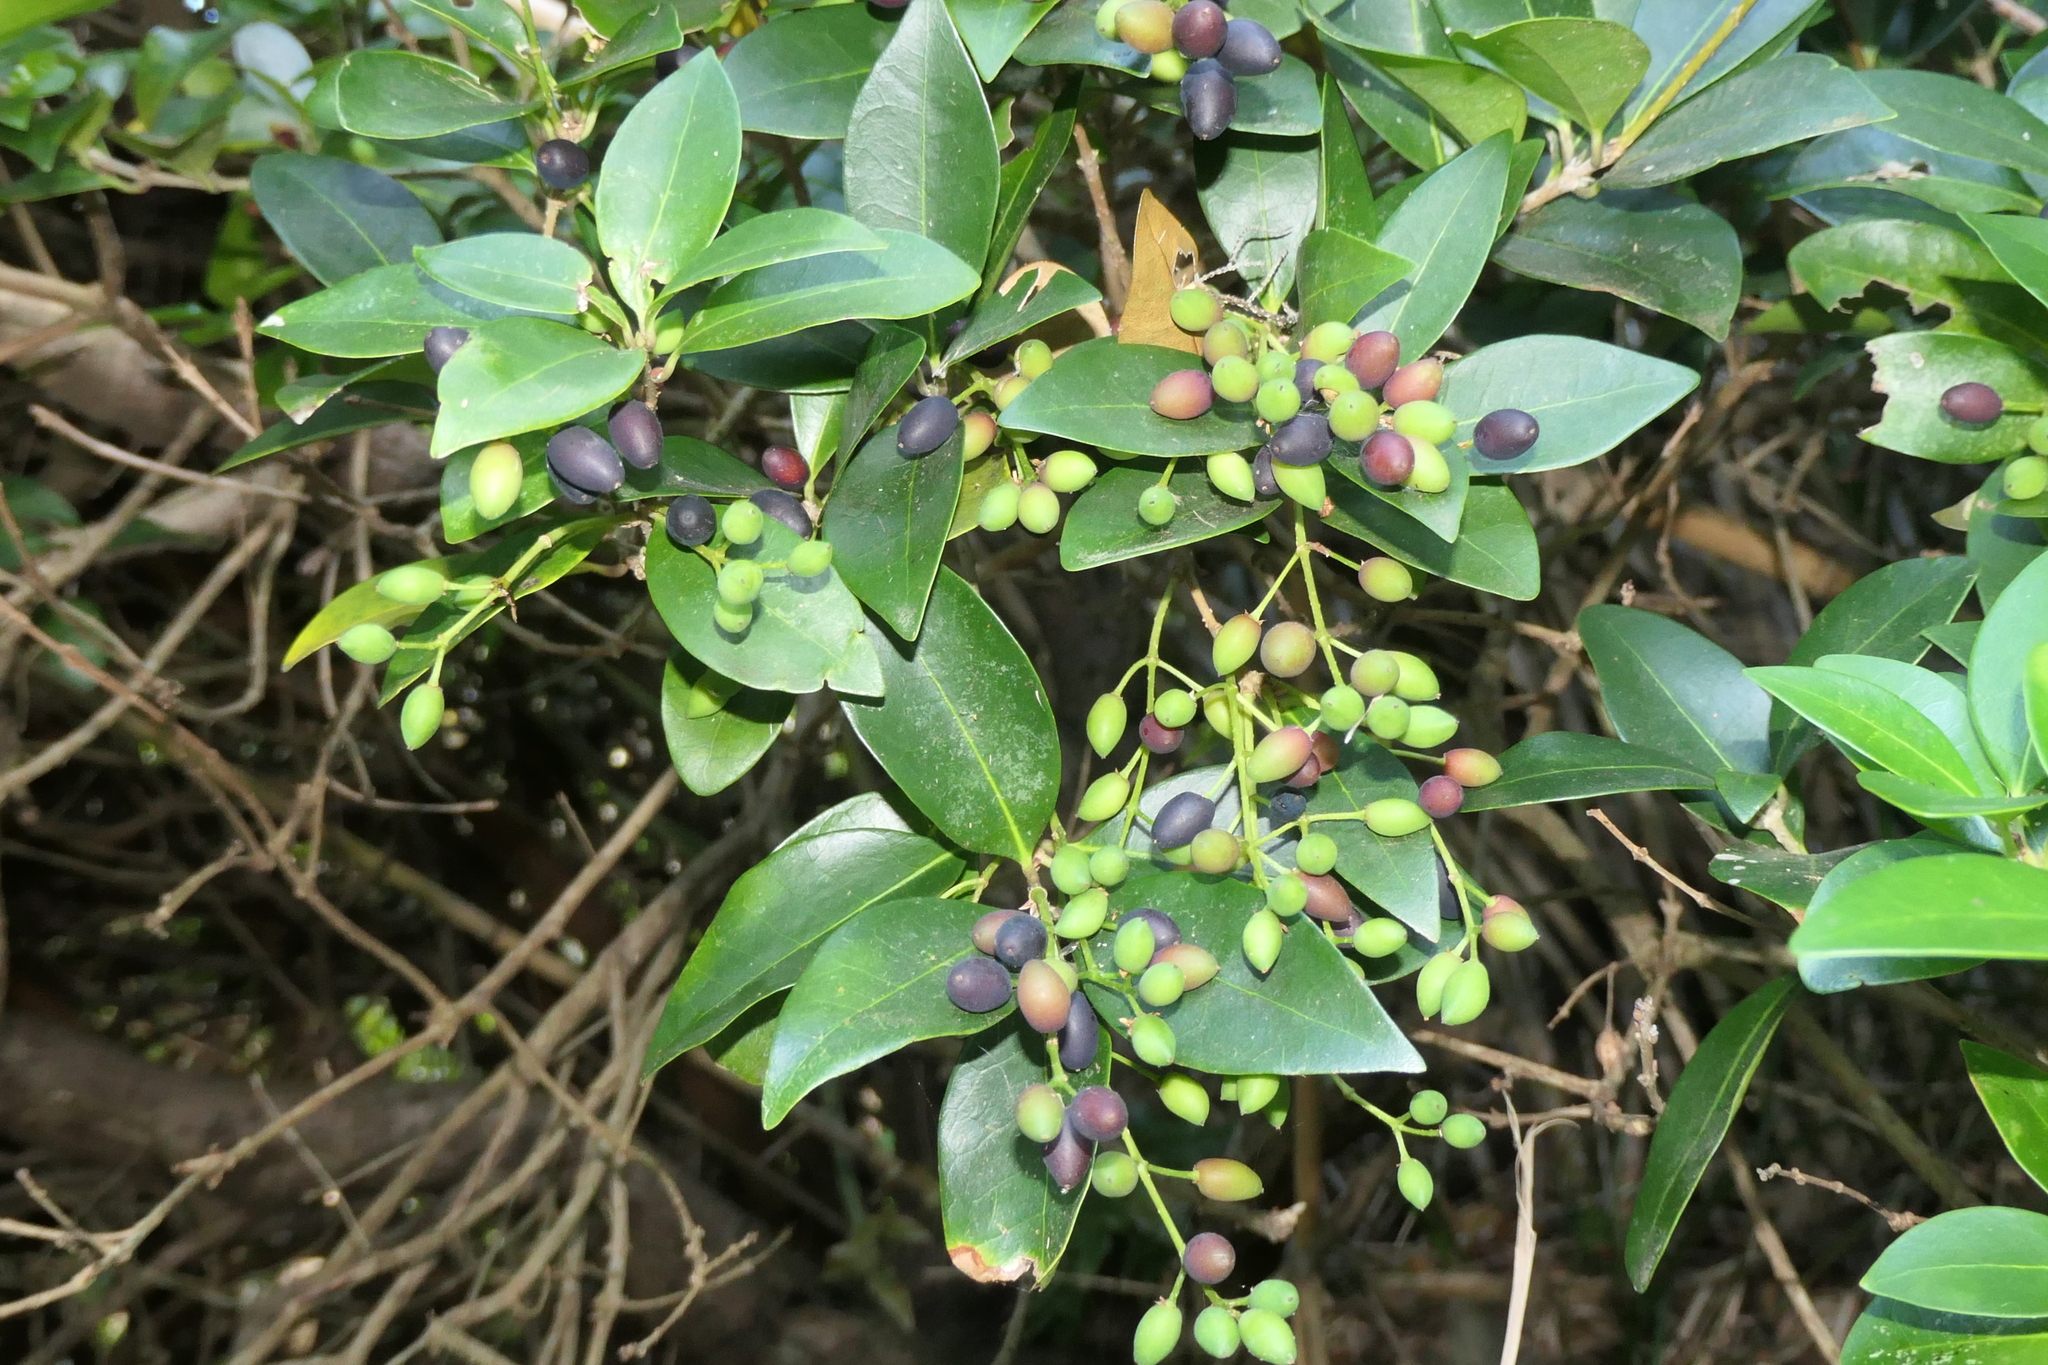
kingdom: Plantae
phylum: Tracheophyta
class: Magnoliopsida
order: Lamiales
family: Oleaceae
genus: Picconia
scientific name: Picconia azorica
